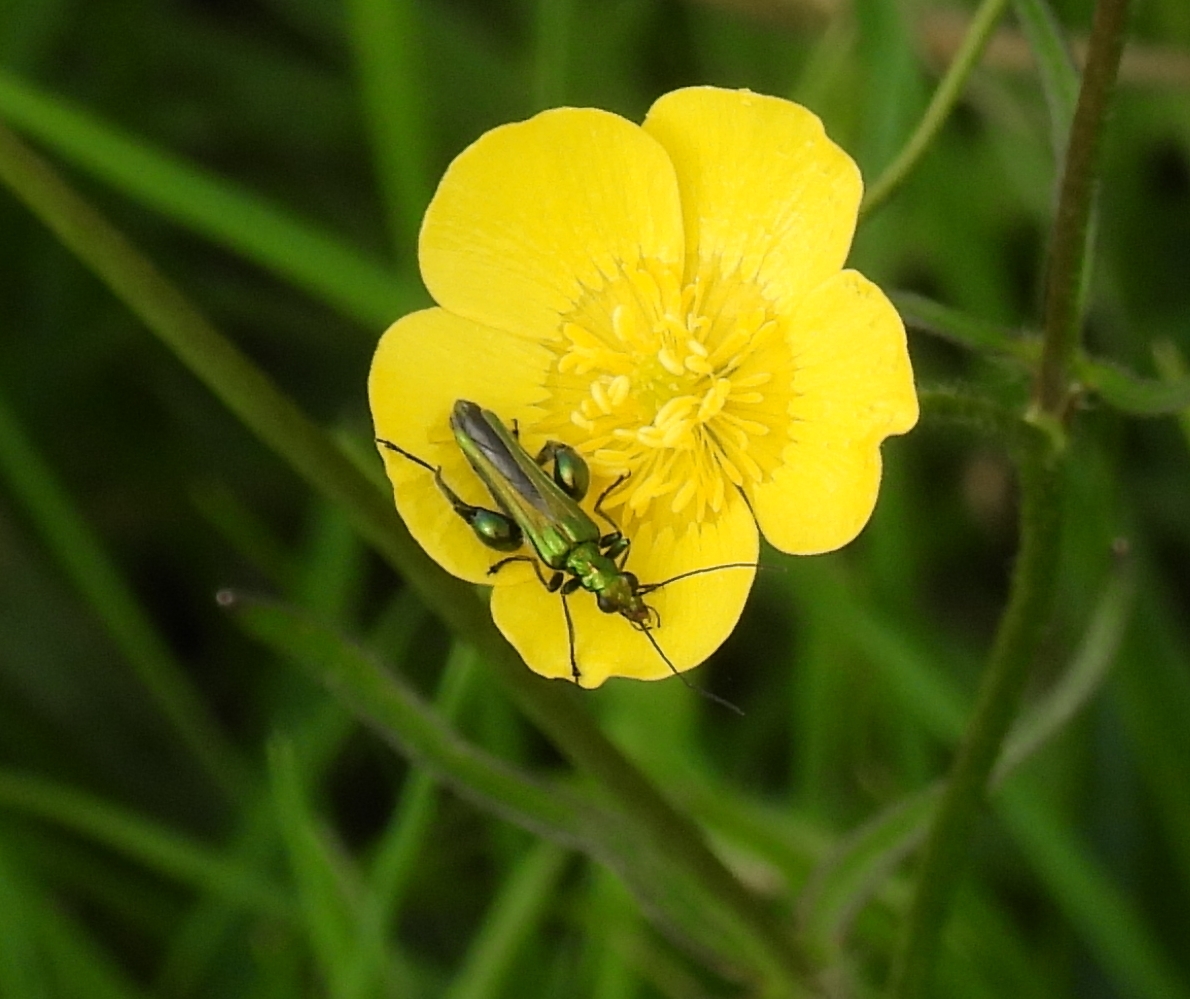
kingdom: Animalia
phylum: Arthropoda
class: Insecta
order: Coleoptera
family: Oedemeridae
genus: Oedemera
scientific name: Oedemera nobilis
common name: Swollen-thighed beetle
